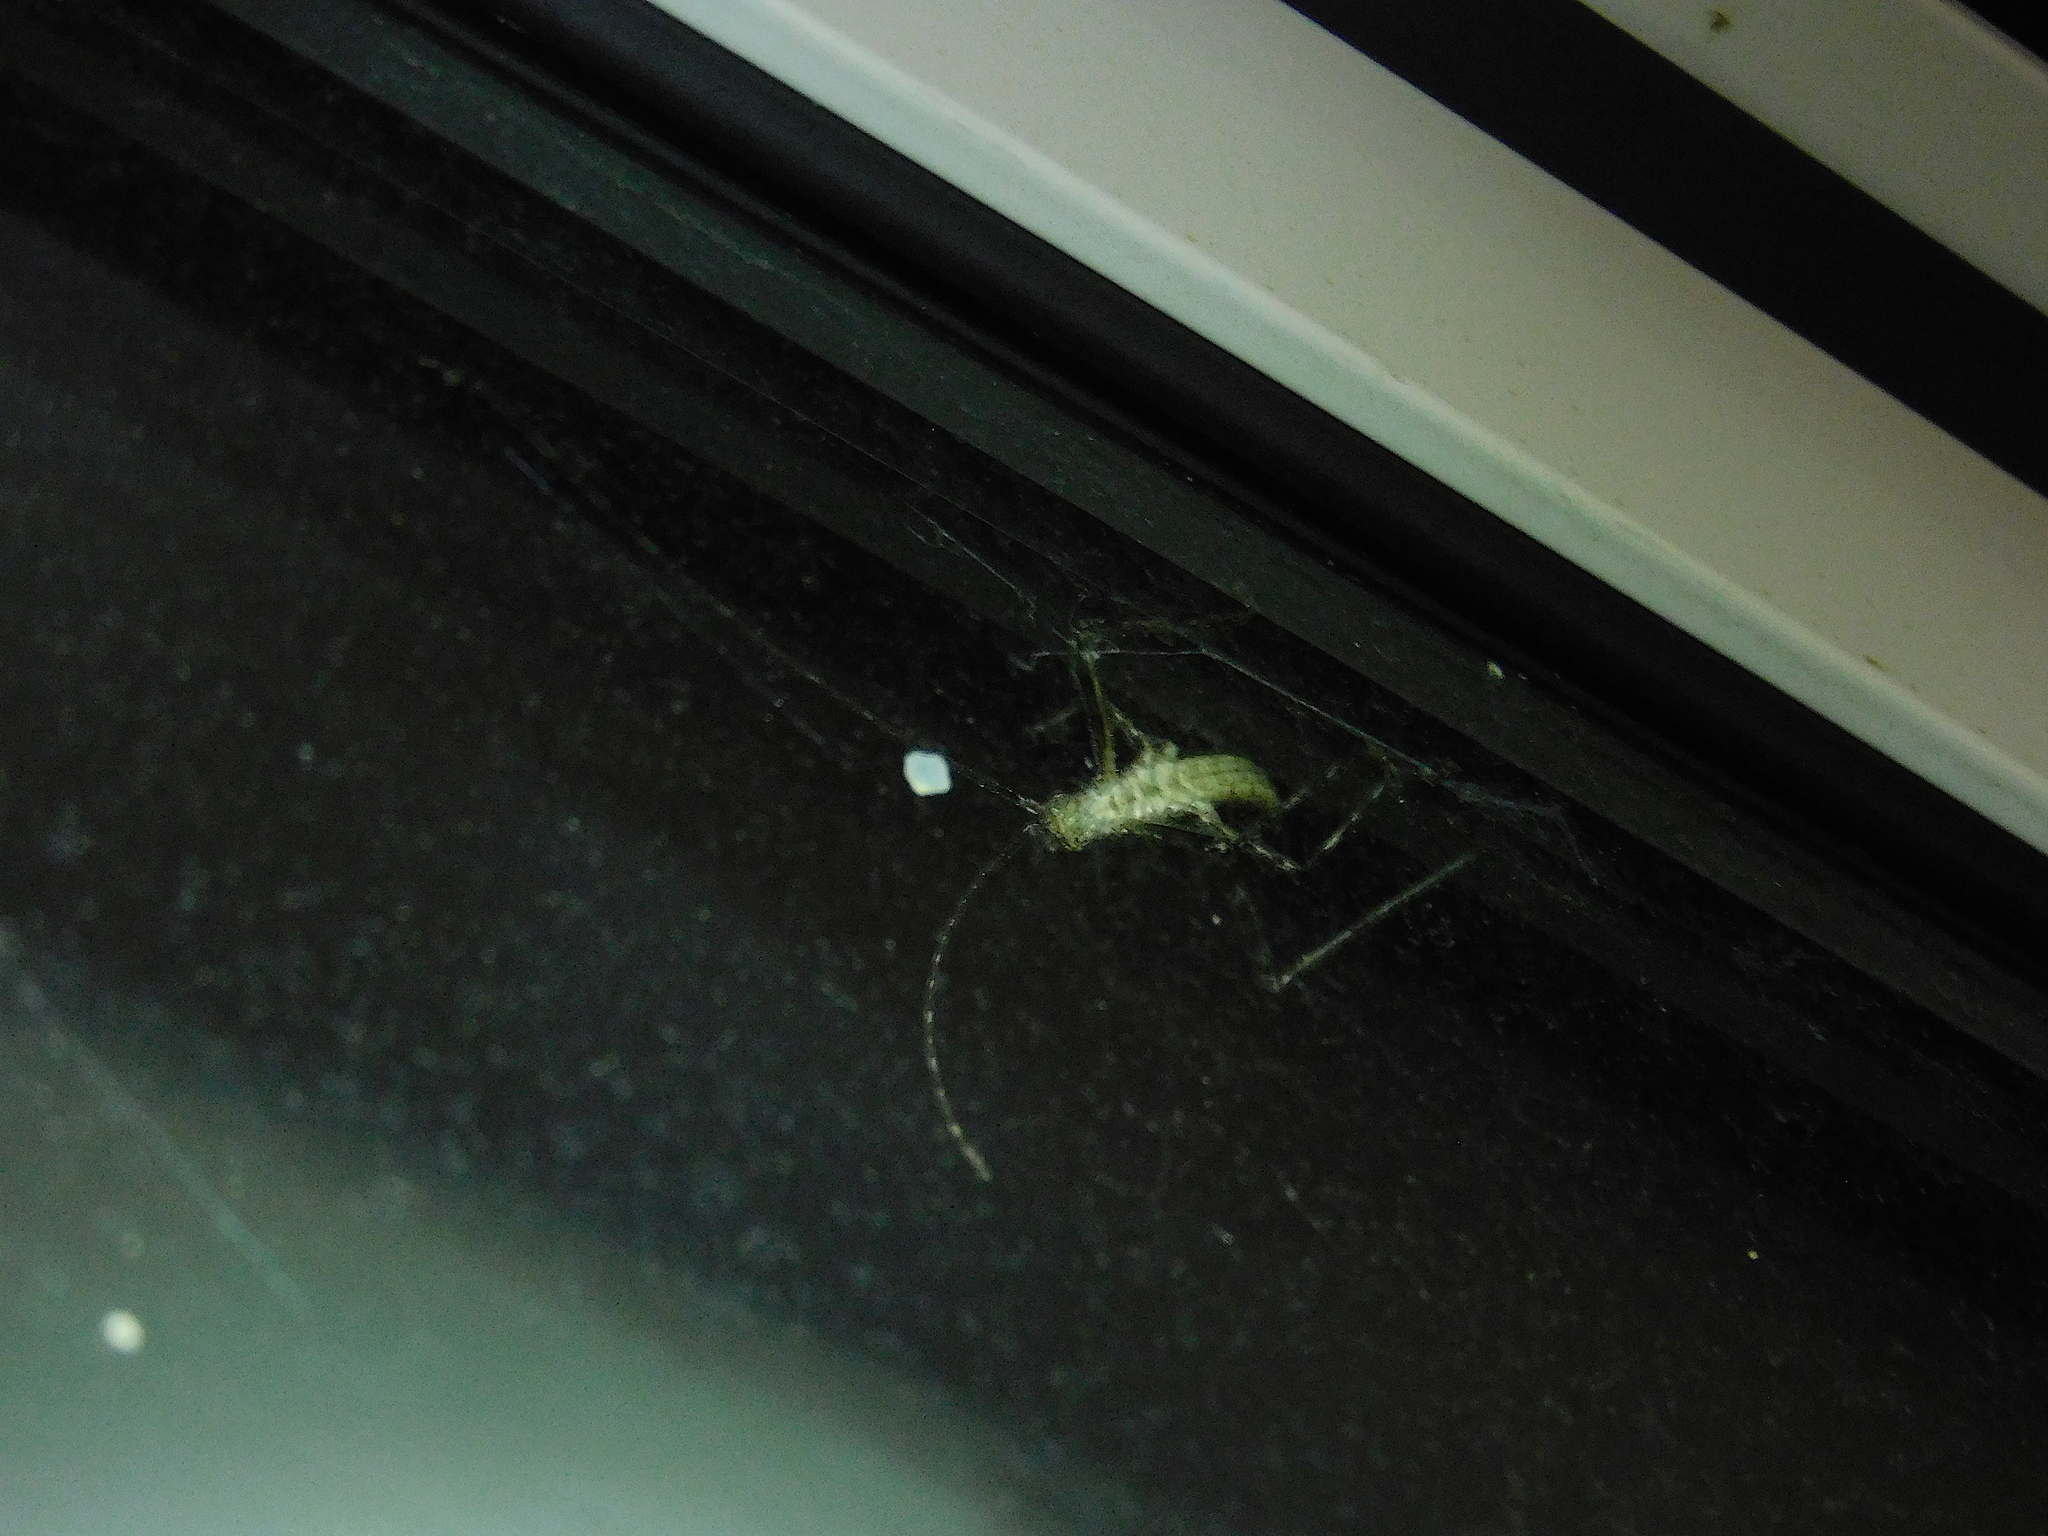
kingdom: Animalia
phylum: Arthropoda
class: Insecta
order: Orthoptera
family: Tettigoniidae
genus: Zaprochilus
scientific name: Zaprochilus australis
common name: Australian twig-mimicking katydid
